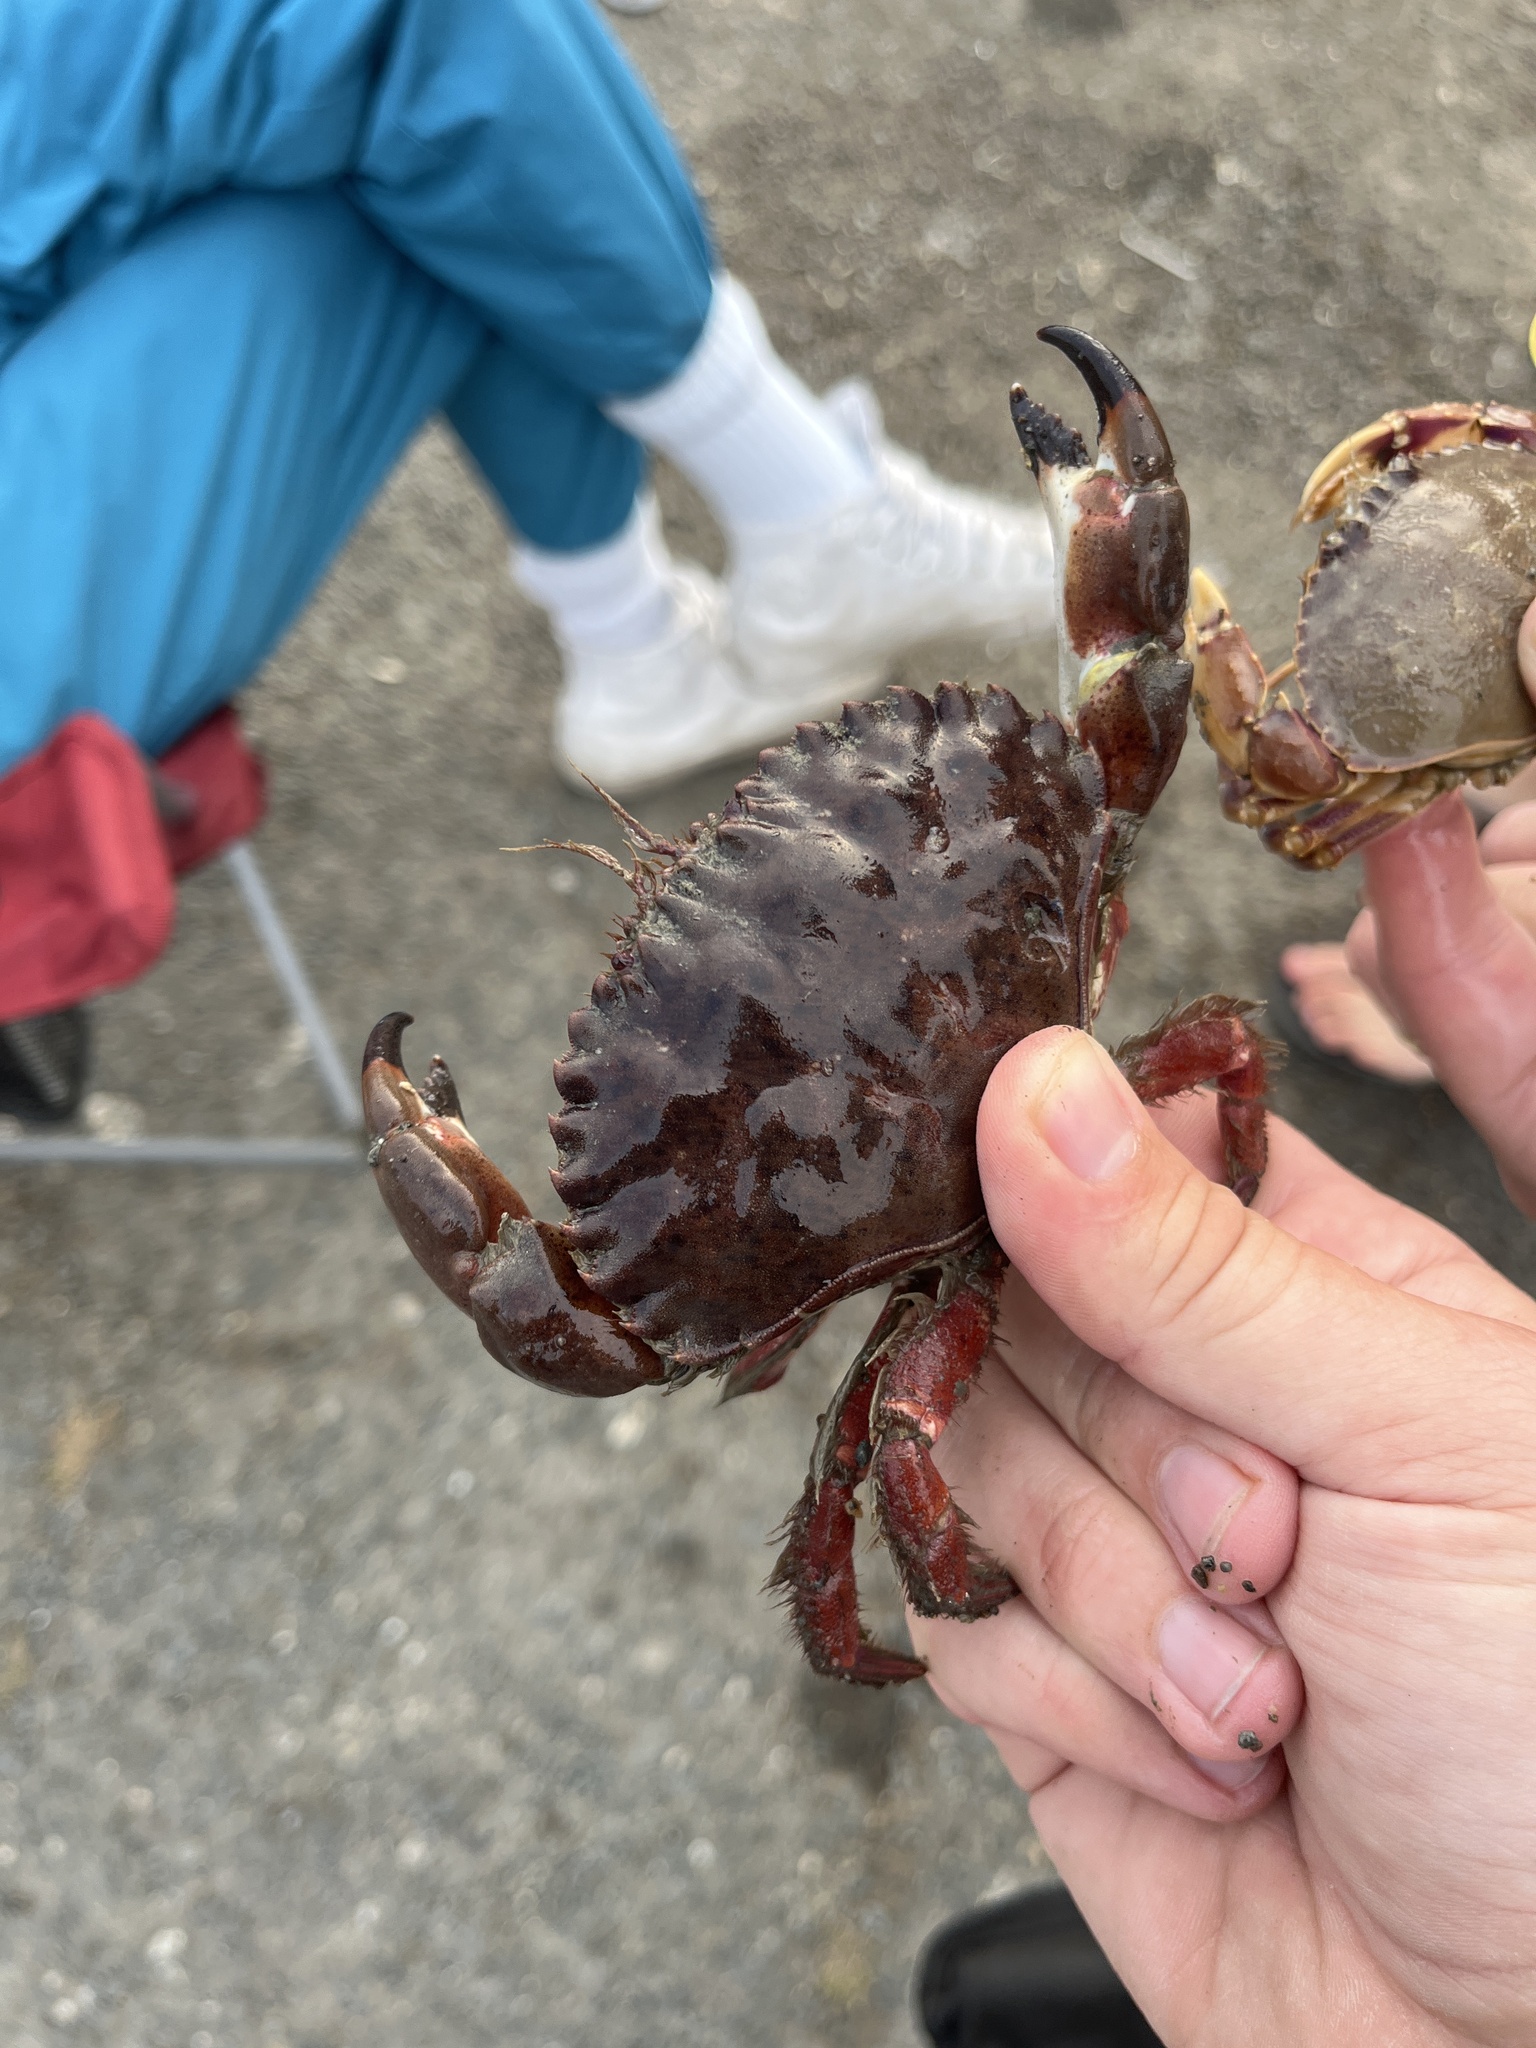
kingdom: Animalia
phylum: Arthropoda
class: Malacostraca
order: Decapoda
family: Cancridae
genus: Romaleon
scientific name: Romaleon antennarium
